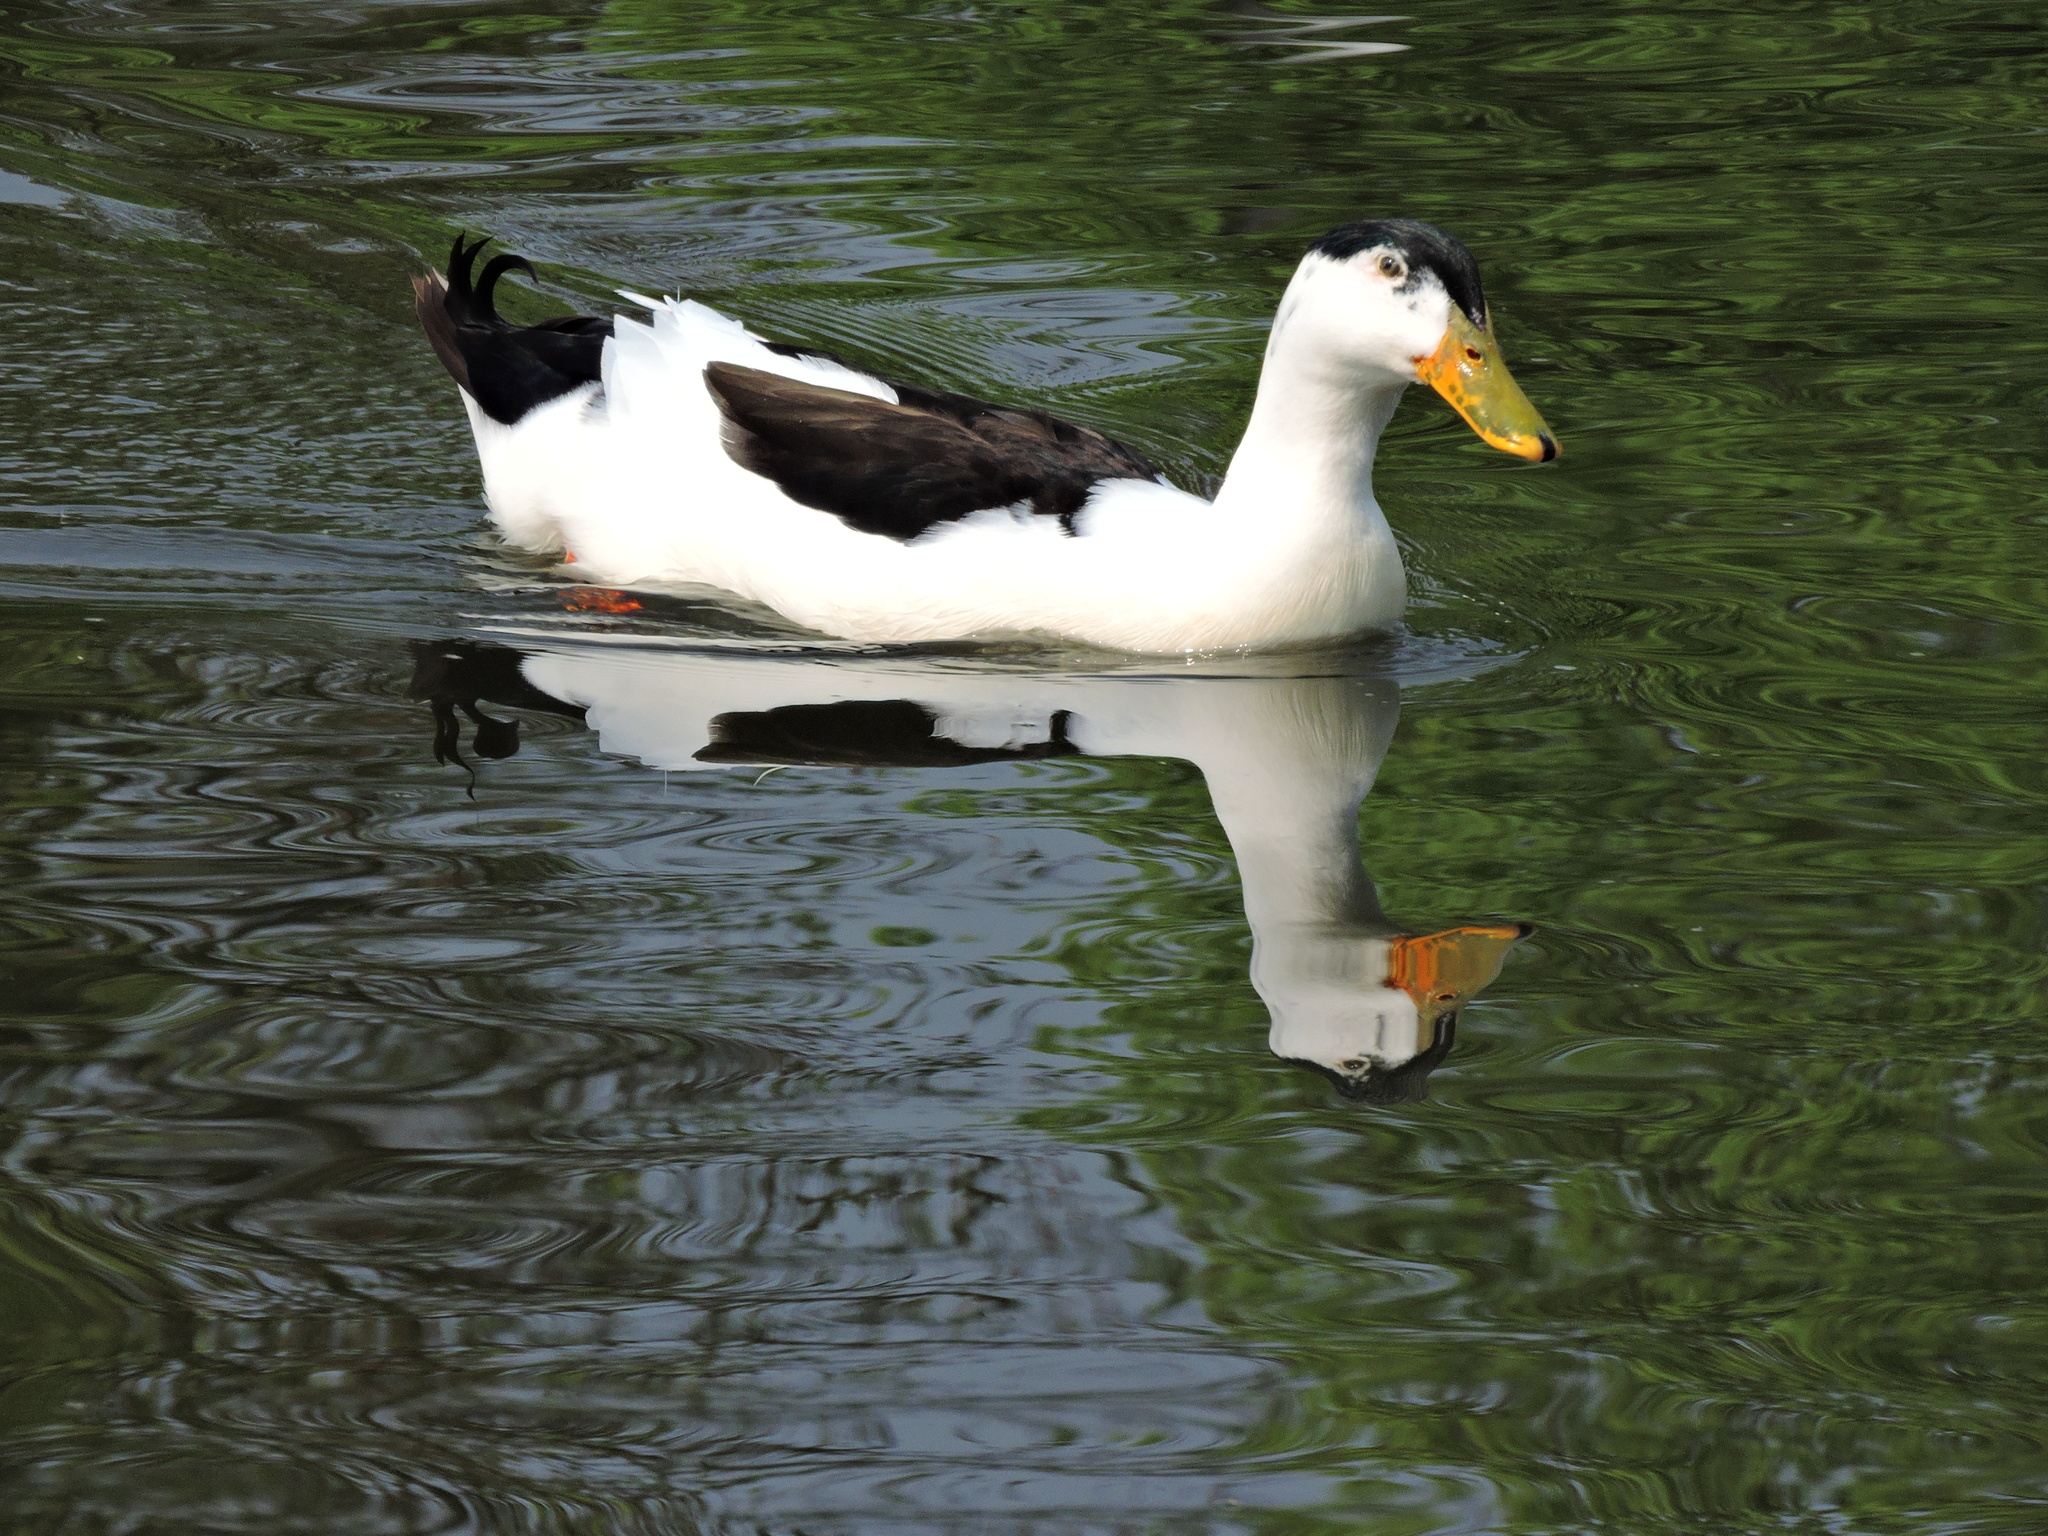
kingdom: Animalia
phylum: Chordata
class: Aves
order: Anseriformes
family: Anatidae
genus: Anas
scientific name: Anas platyrhynchos
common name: Mallard
